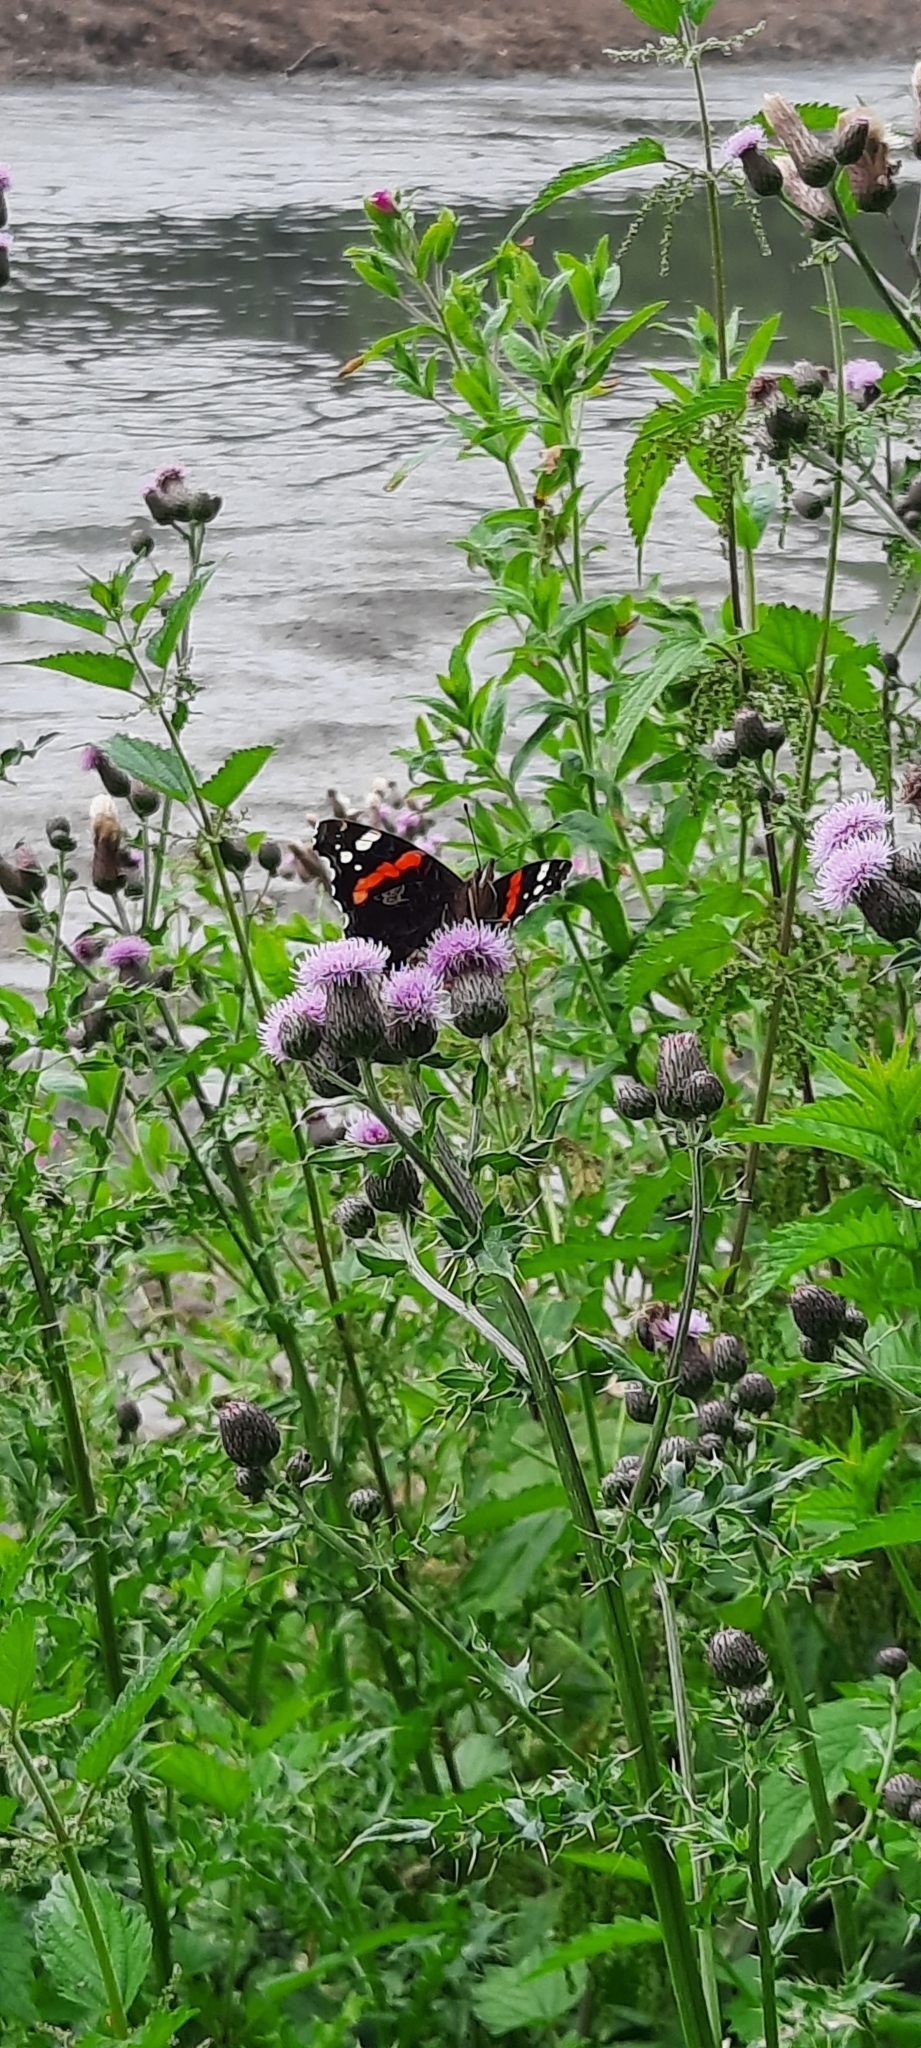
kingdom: Animalia
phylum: Arthropoda
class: Insecta
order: Lepidoptera
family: Nymphalidae
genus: Vanessa
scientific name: Vanessa atalanta
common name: Red admiral
